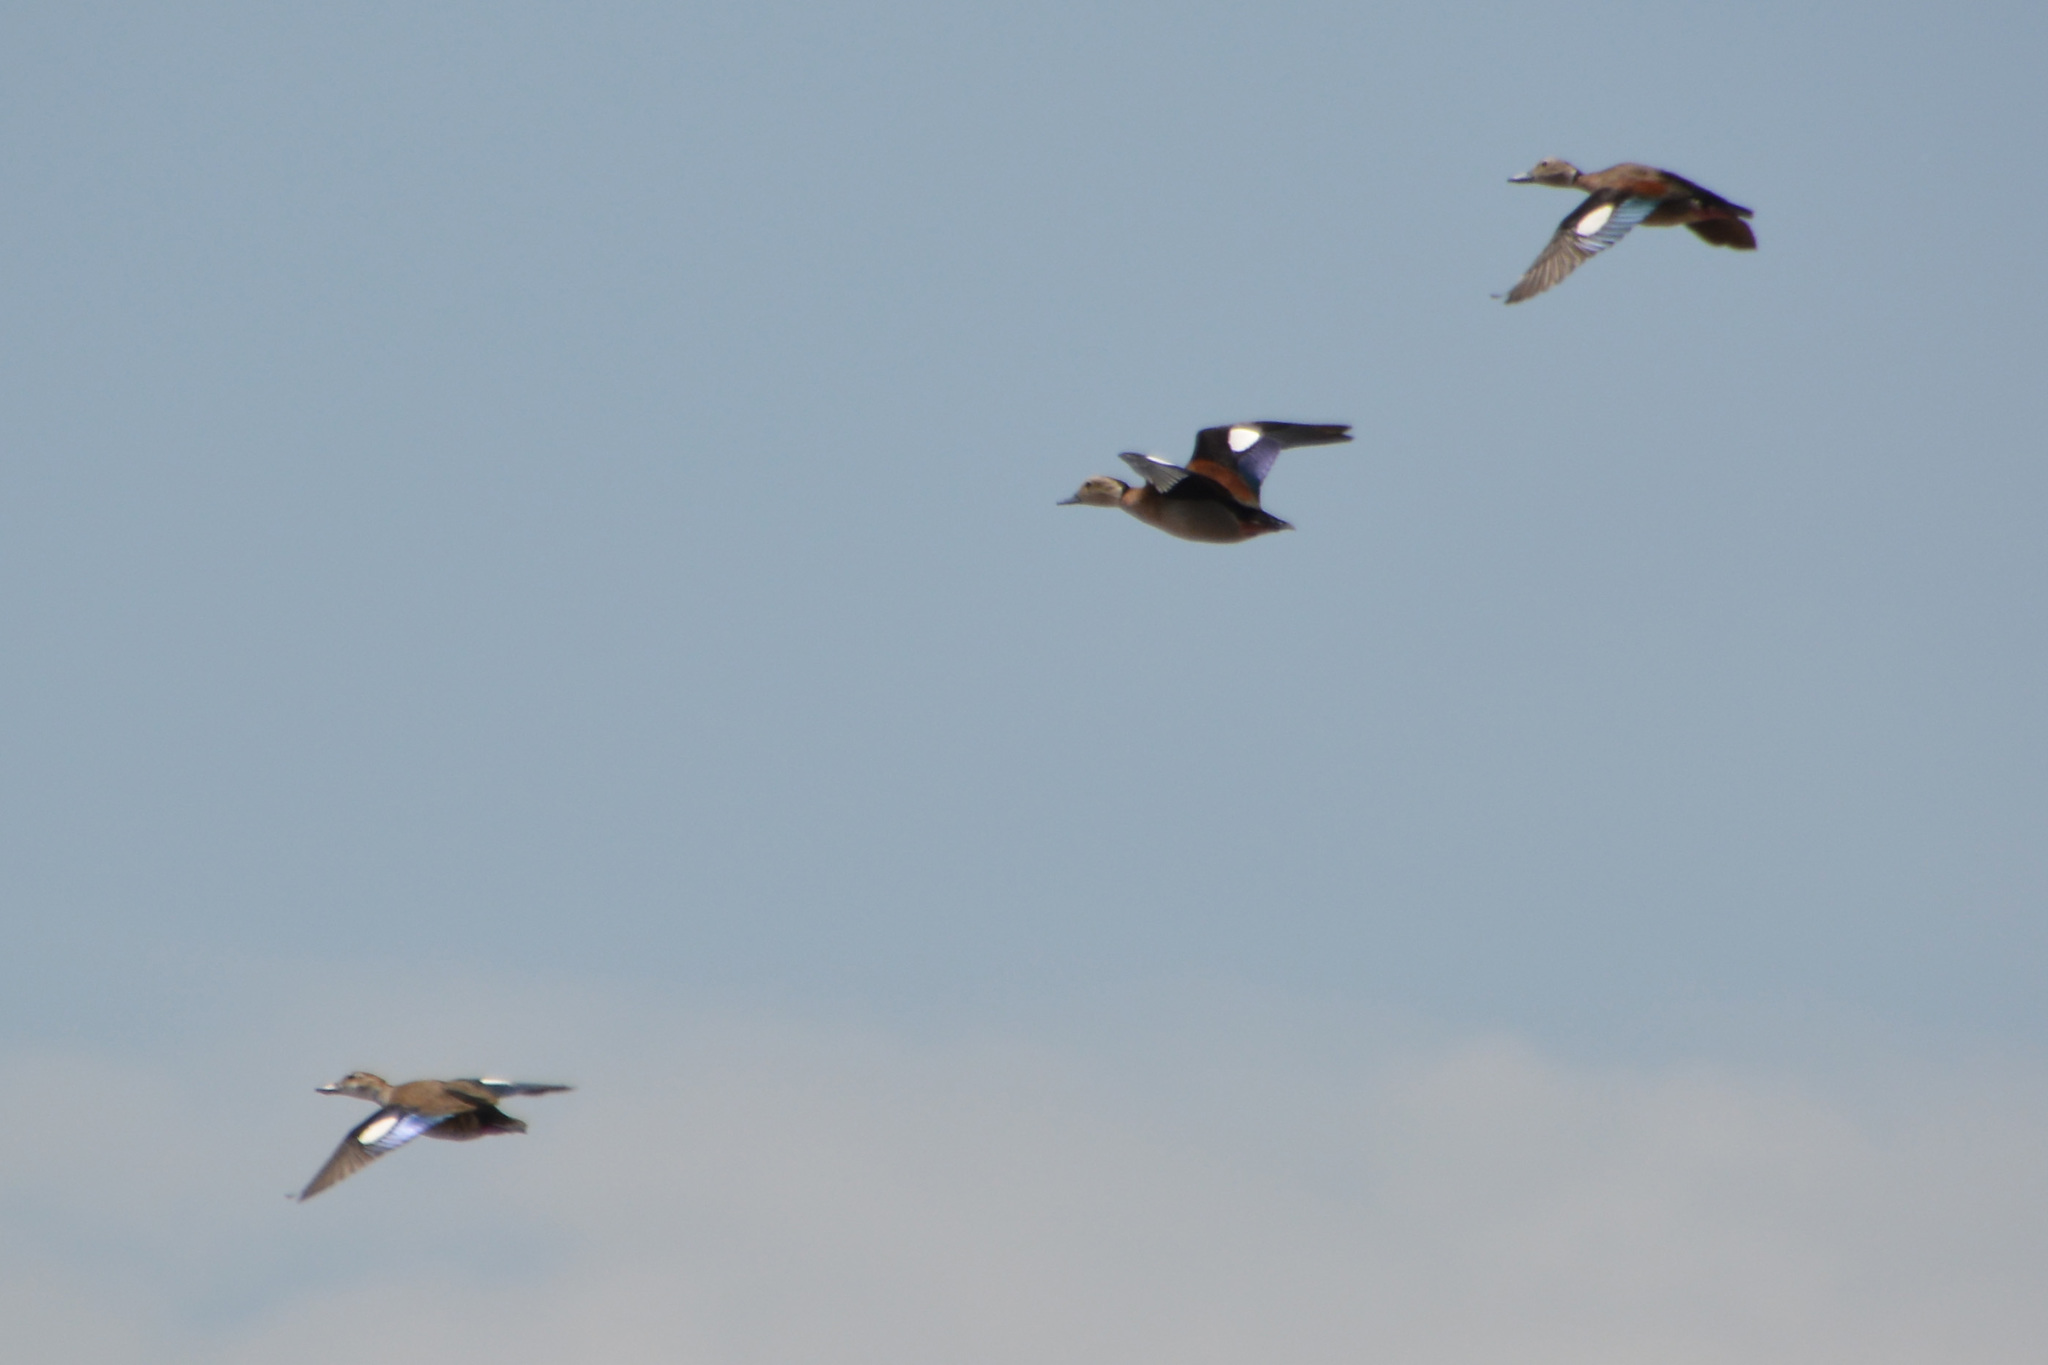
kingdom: Animalia
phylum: Chordata
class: Aves
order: Anseriformes
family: Anatidae
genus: Callonetta
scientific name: Callonetta leucophrys
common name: Ringed teal
